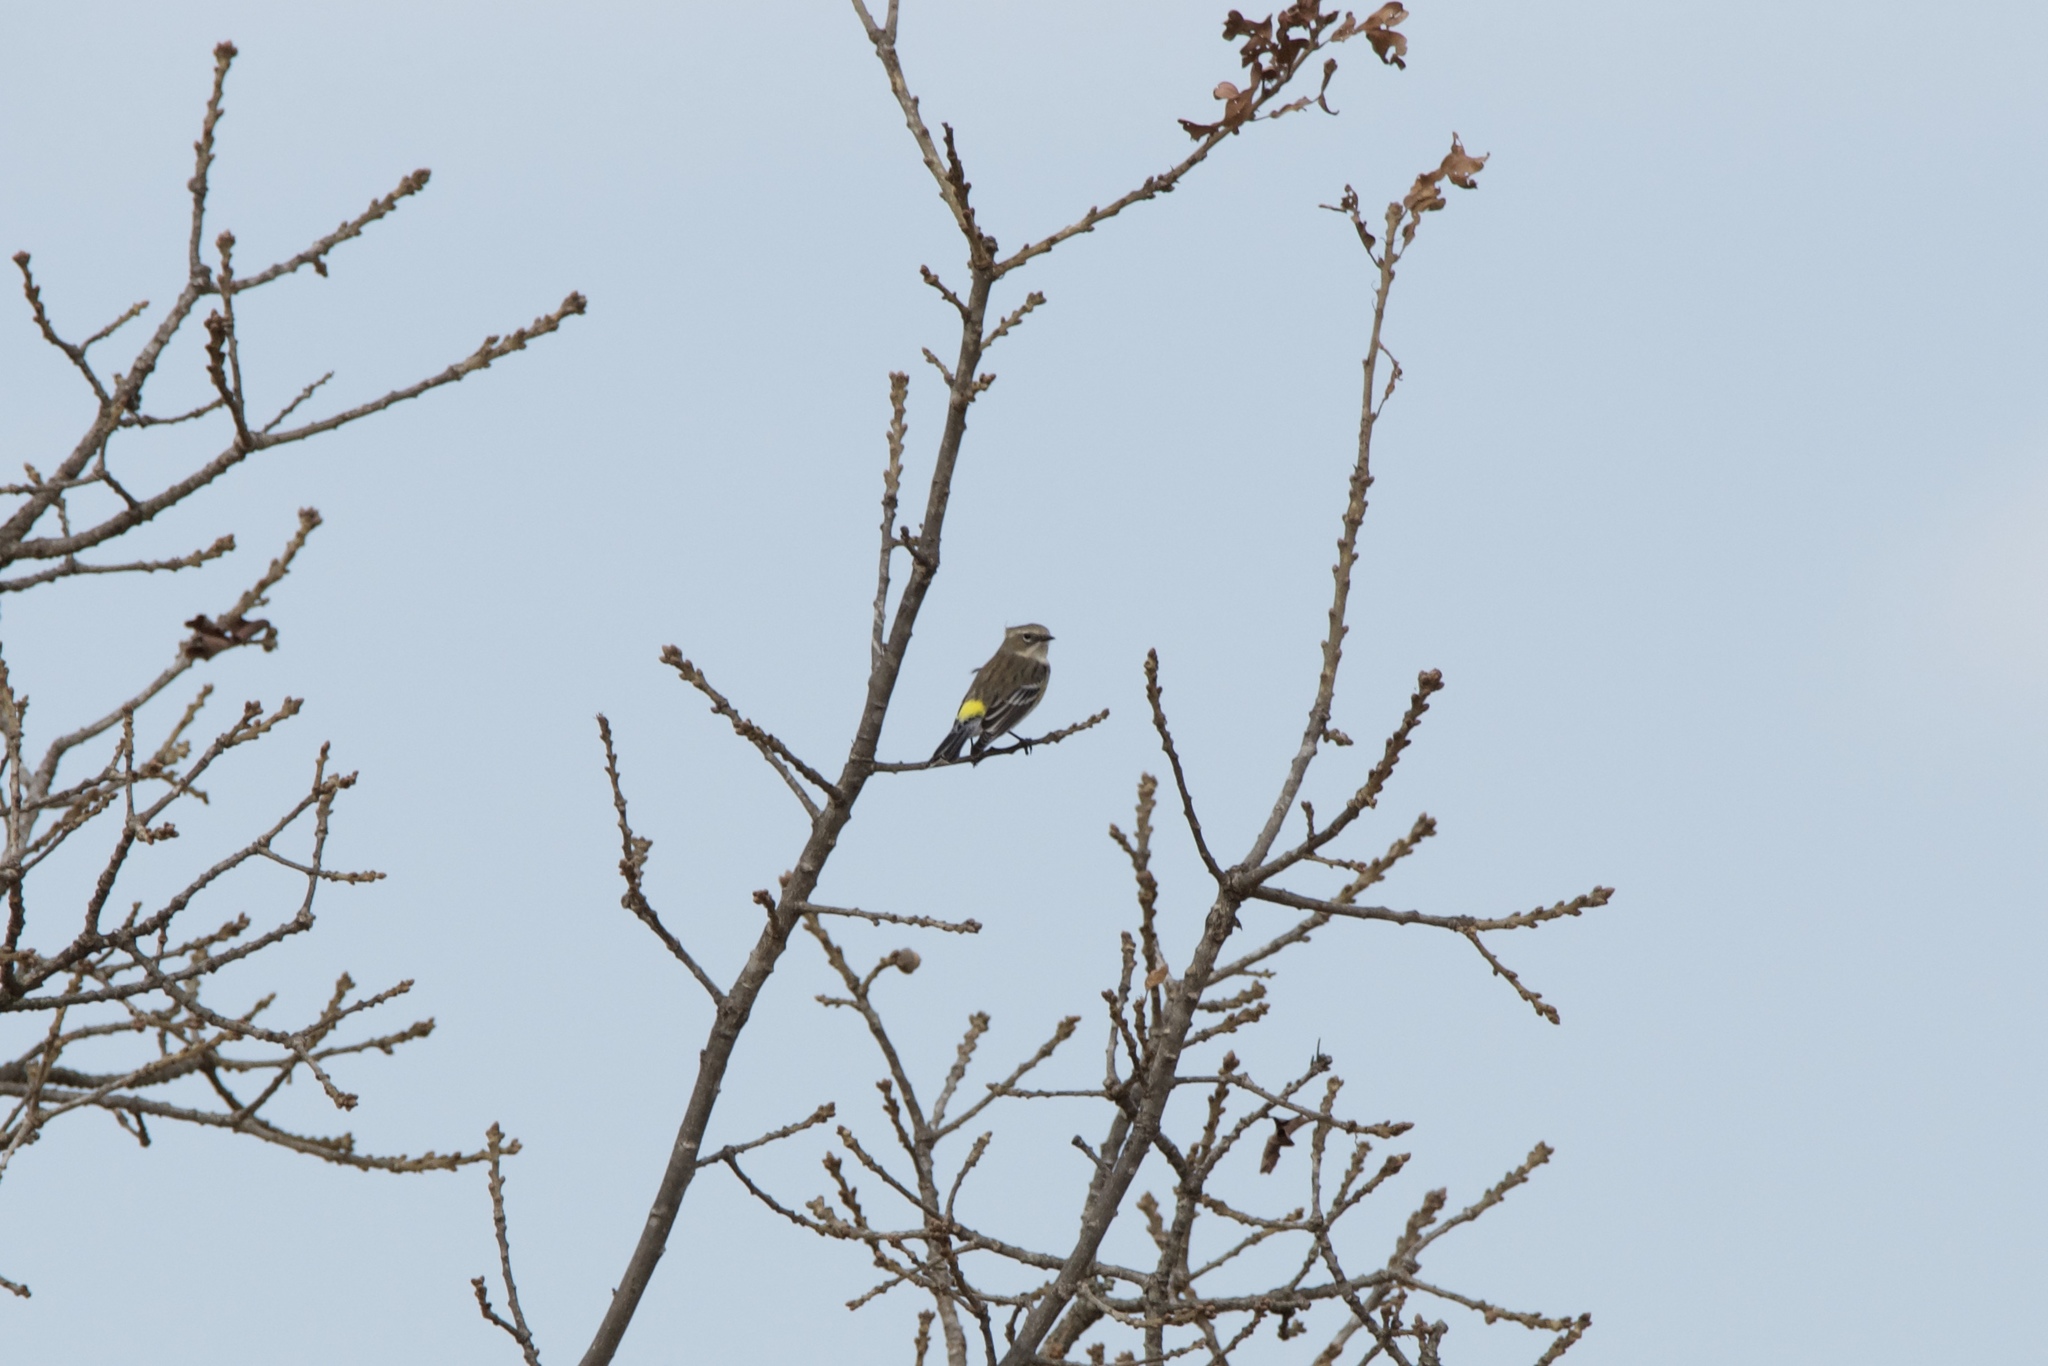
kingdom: Animalia
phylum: Chordata
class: Aves
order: Passeriformes
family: Parulidae
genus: Setophaga
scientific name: Setophaga coronata
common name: Myrtle warbler
